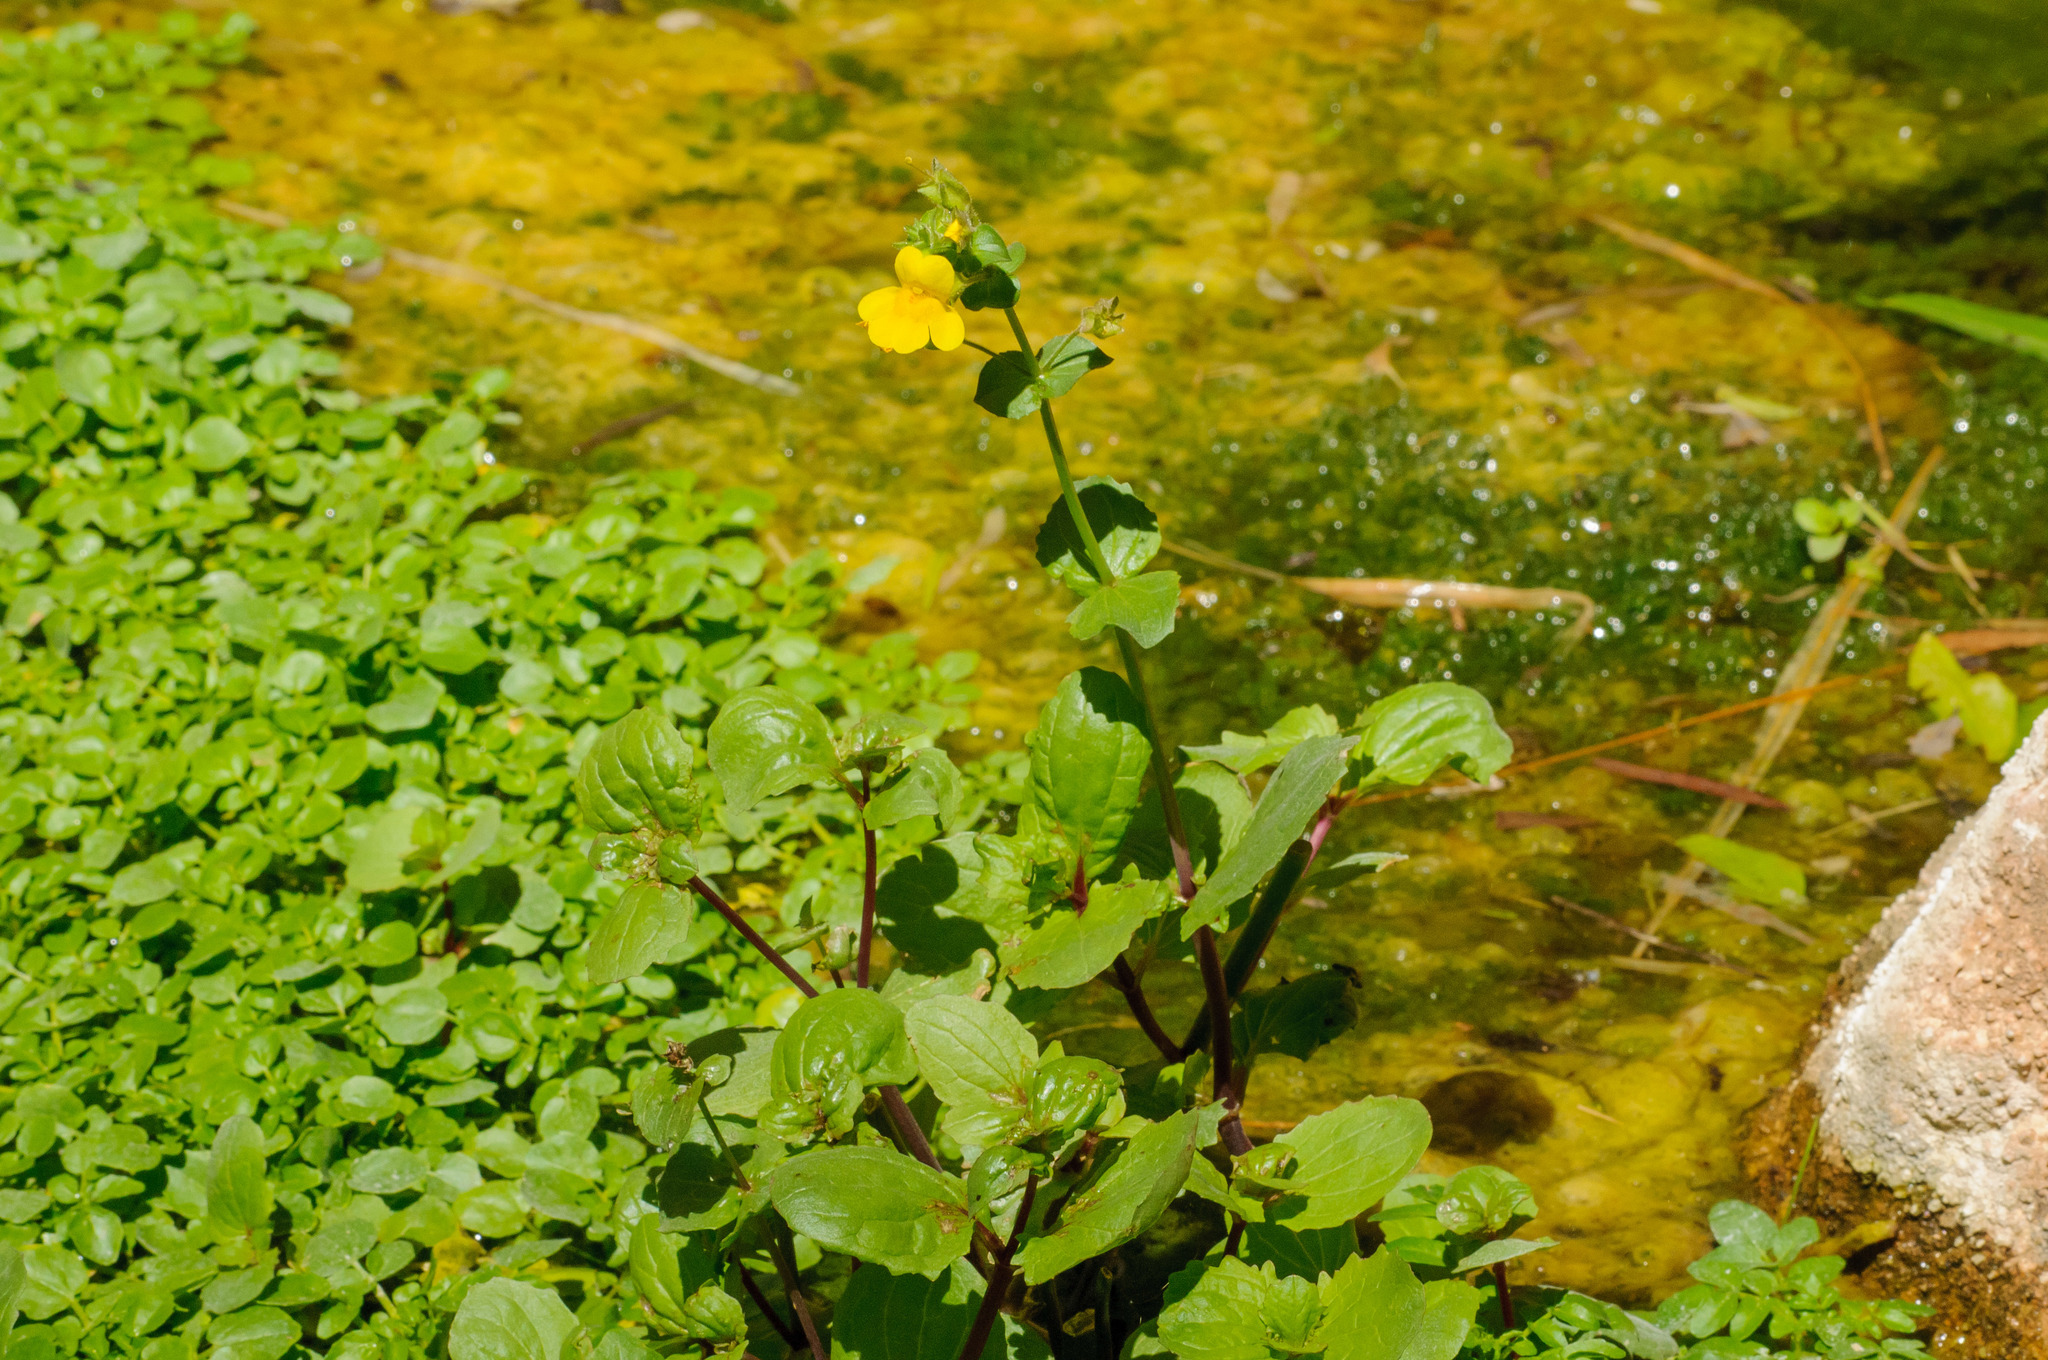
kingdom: Plantae
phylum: Tracheophyta
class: Magnoliopsida
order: Lamiales
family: Phrymaceae
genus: Erythranthe
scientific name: Erythranthe guttata
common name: Monkeyflower
